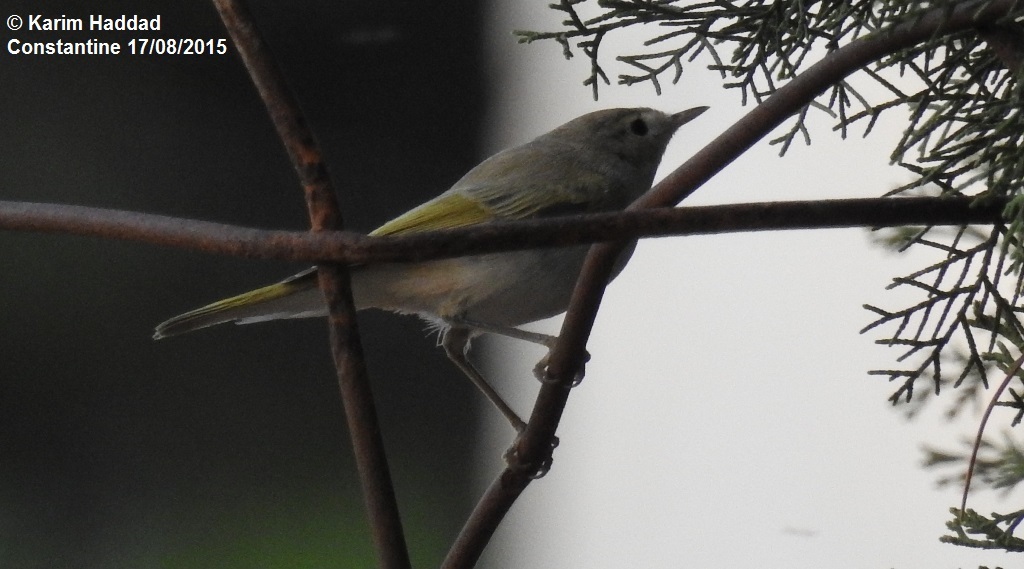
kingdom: Animalia
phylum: Chordata
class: Aves
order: Passeriformes
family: Phylloscopidae
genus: Phylloscopus
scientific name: Phylloscopus bonelli
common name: Western bonelli's warbler
